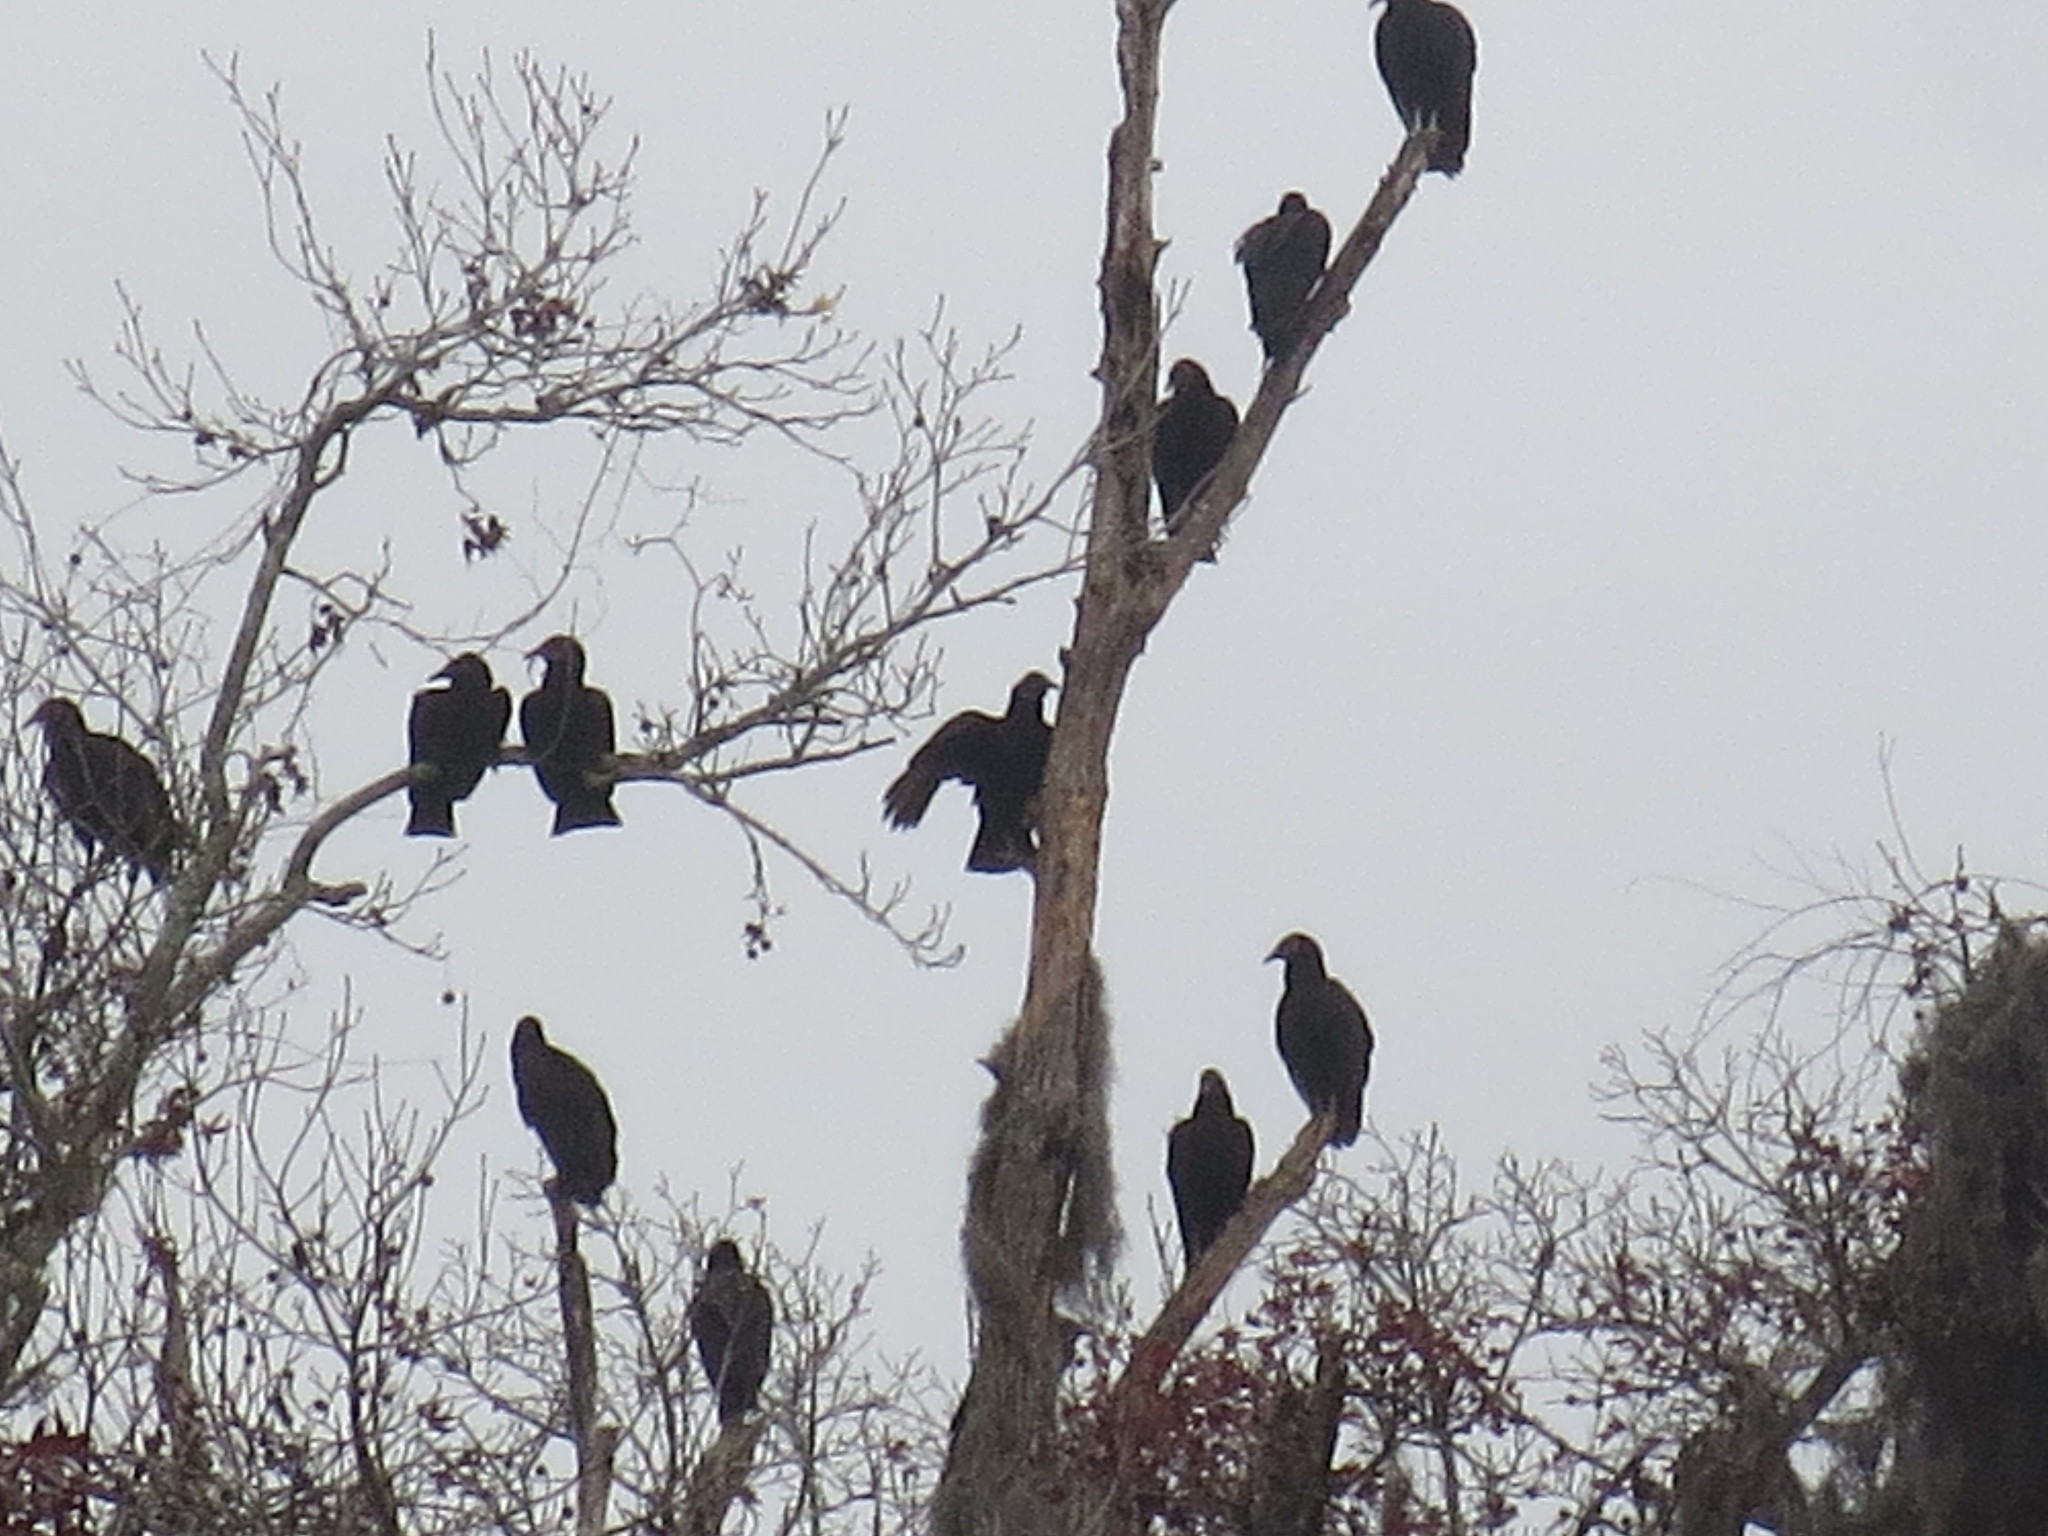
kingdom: Animalia
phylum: Chordata
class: Aves
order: Accipitriformes
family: Cathartidae
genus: Coragyps
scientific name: Coragyps atratus
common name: Black vulture
